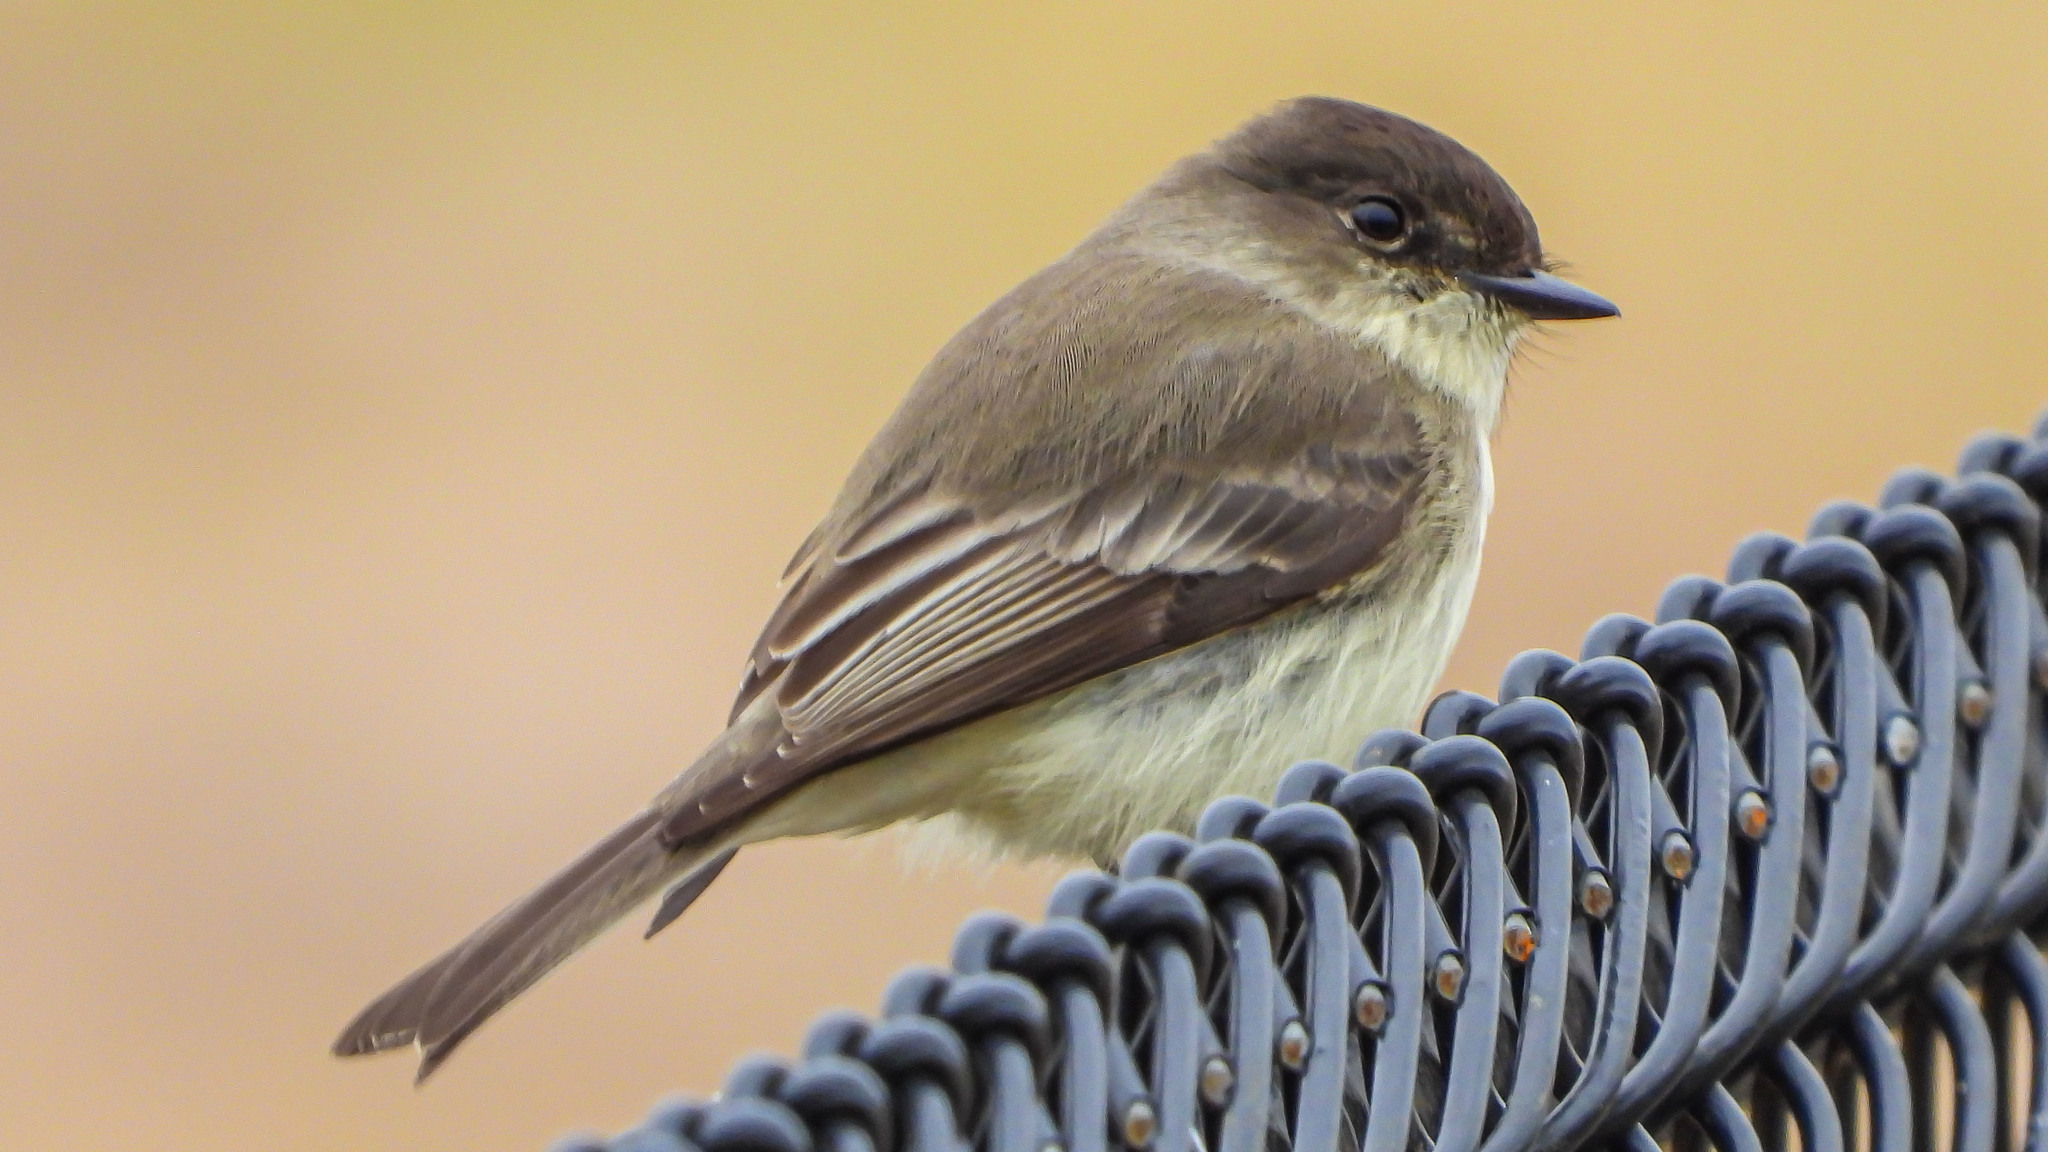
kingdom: Animalia
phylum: Chordata
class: Aves
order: Passeriformes
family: Tyrannidae
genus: Sayornis
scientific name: Sayornis phoebe
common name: Eastern phoebe
